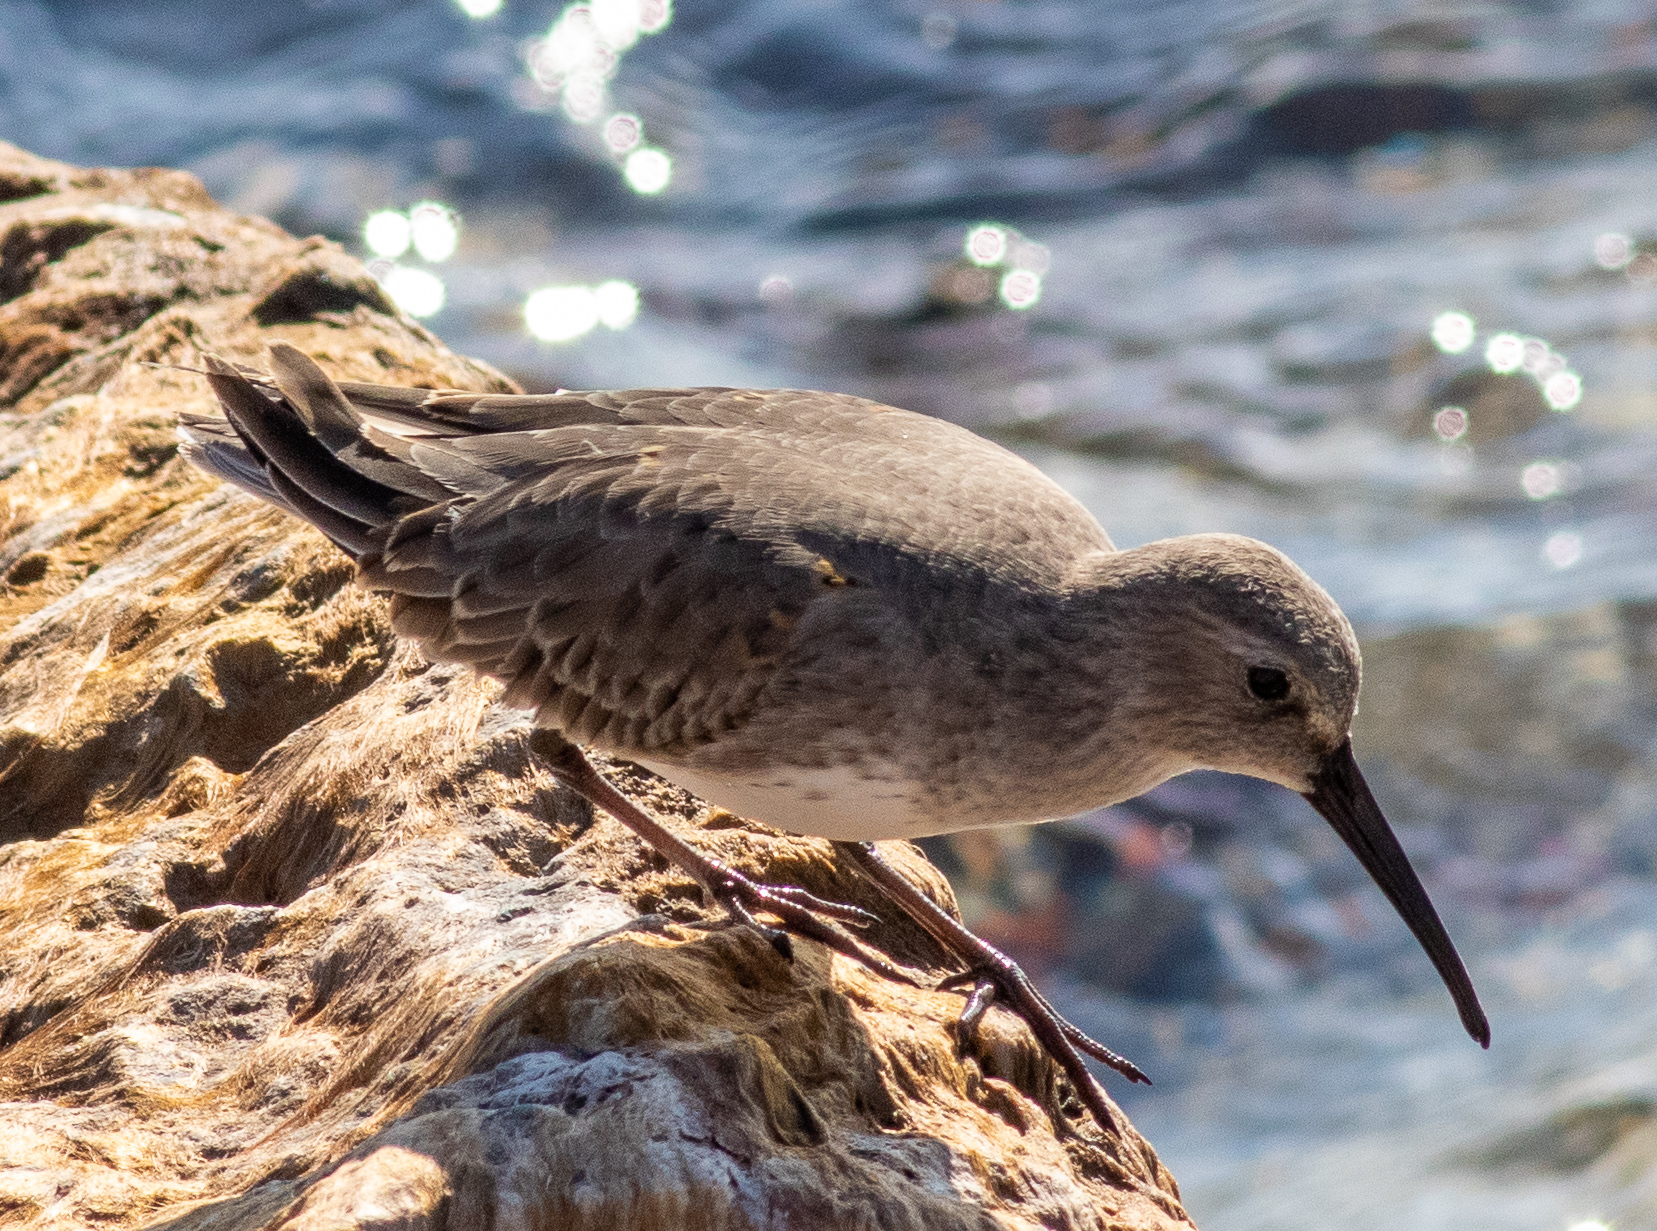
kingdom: Animalia
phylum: Chordata
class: Aves
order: Charadriiformes
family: Scolopacidae
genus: Calidris
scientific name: Calidris alpina
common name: Dunlin
